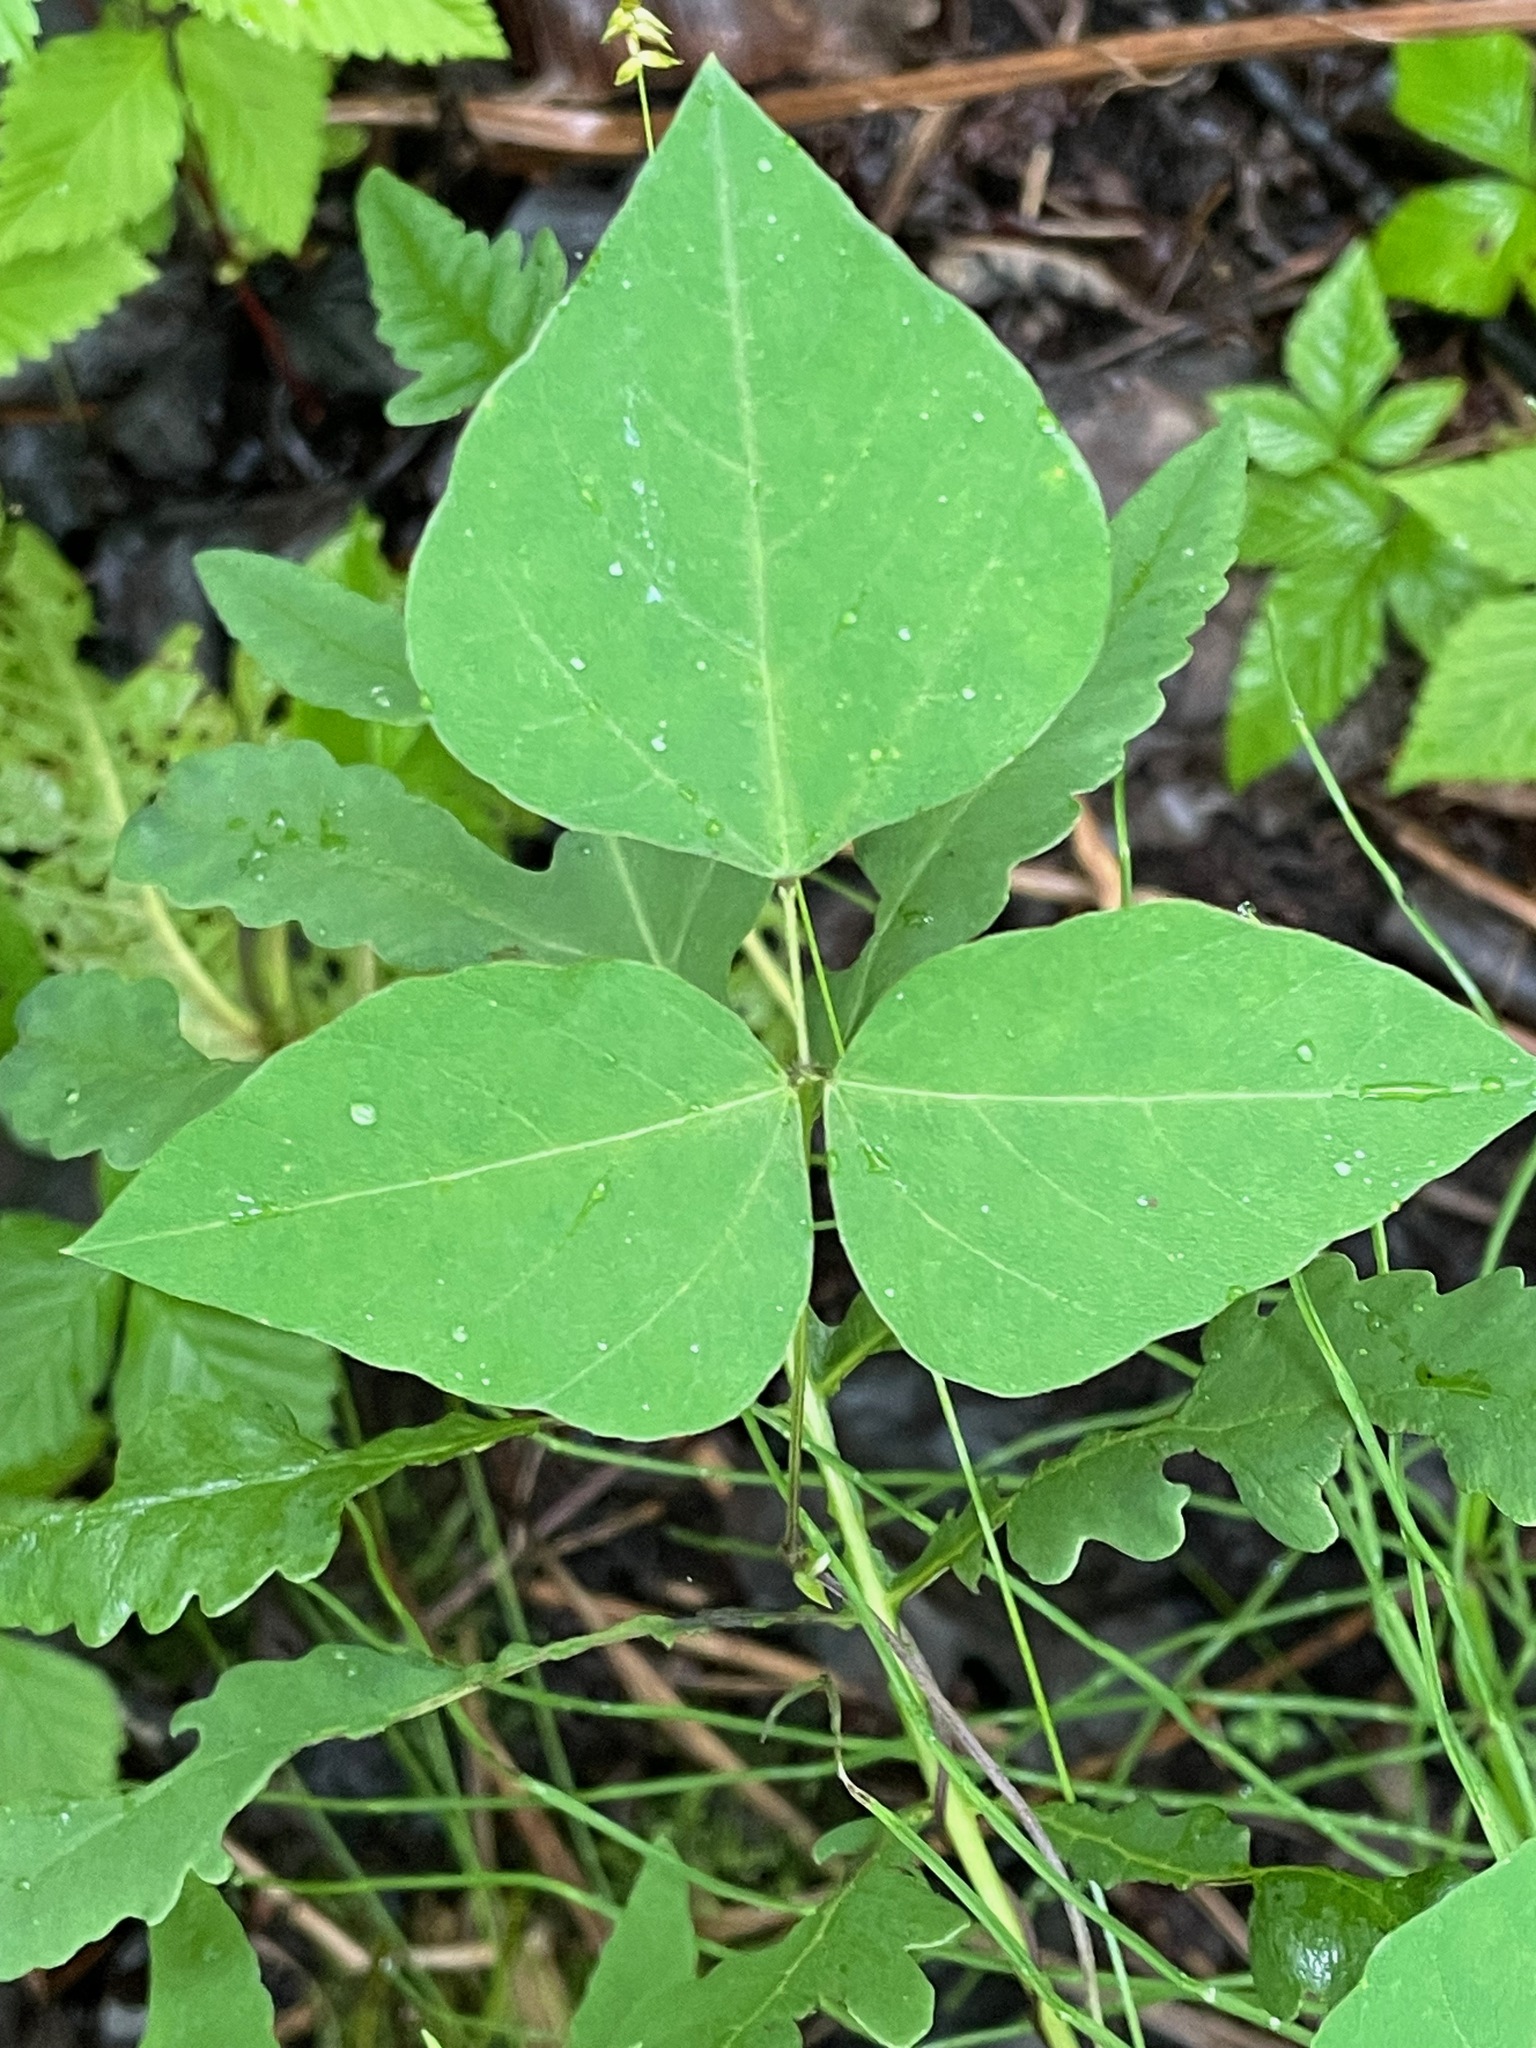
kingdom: Plantae
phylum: Tracheophyta
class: Magnoliopsida
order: Fabales
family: Fabaceae
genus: Amphicarpaea
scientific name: Amphicarpaea bracteata
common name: American hog peanut
